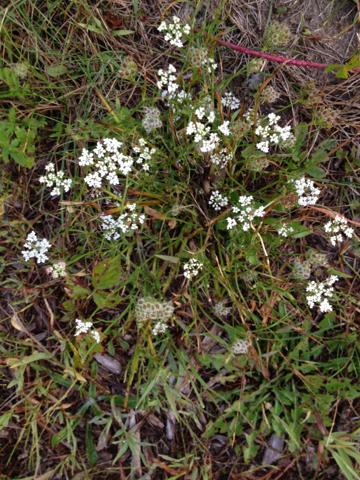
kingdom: Plantae
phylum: Tracheophyta
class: Magnoliopsida
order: Apiales
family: Apiaceae
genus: Daucus
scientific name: Daucus carota
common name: Wild carrot
